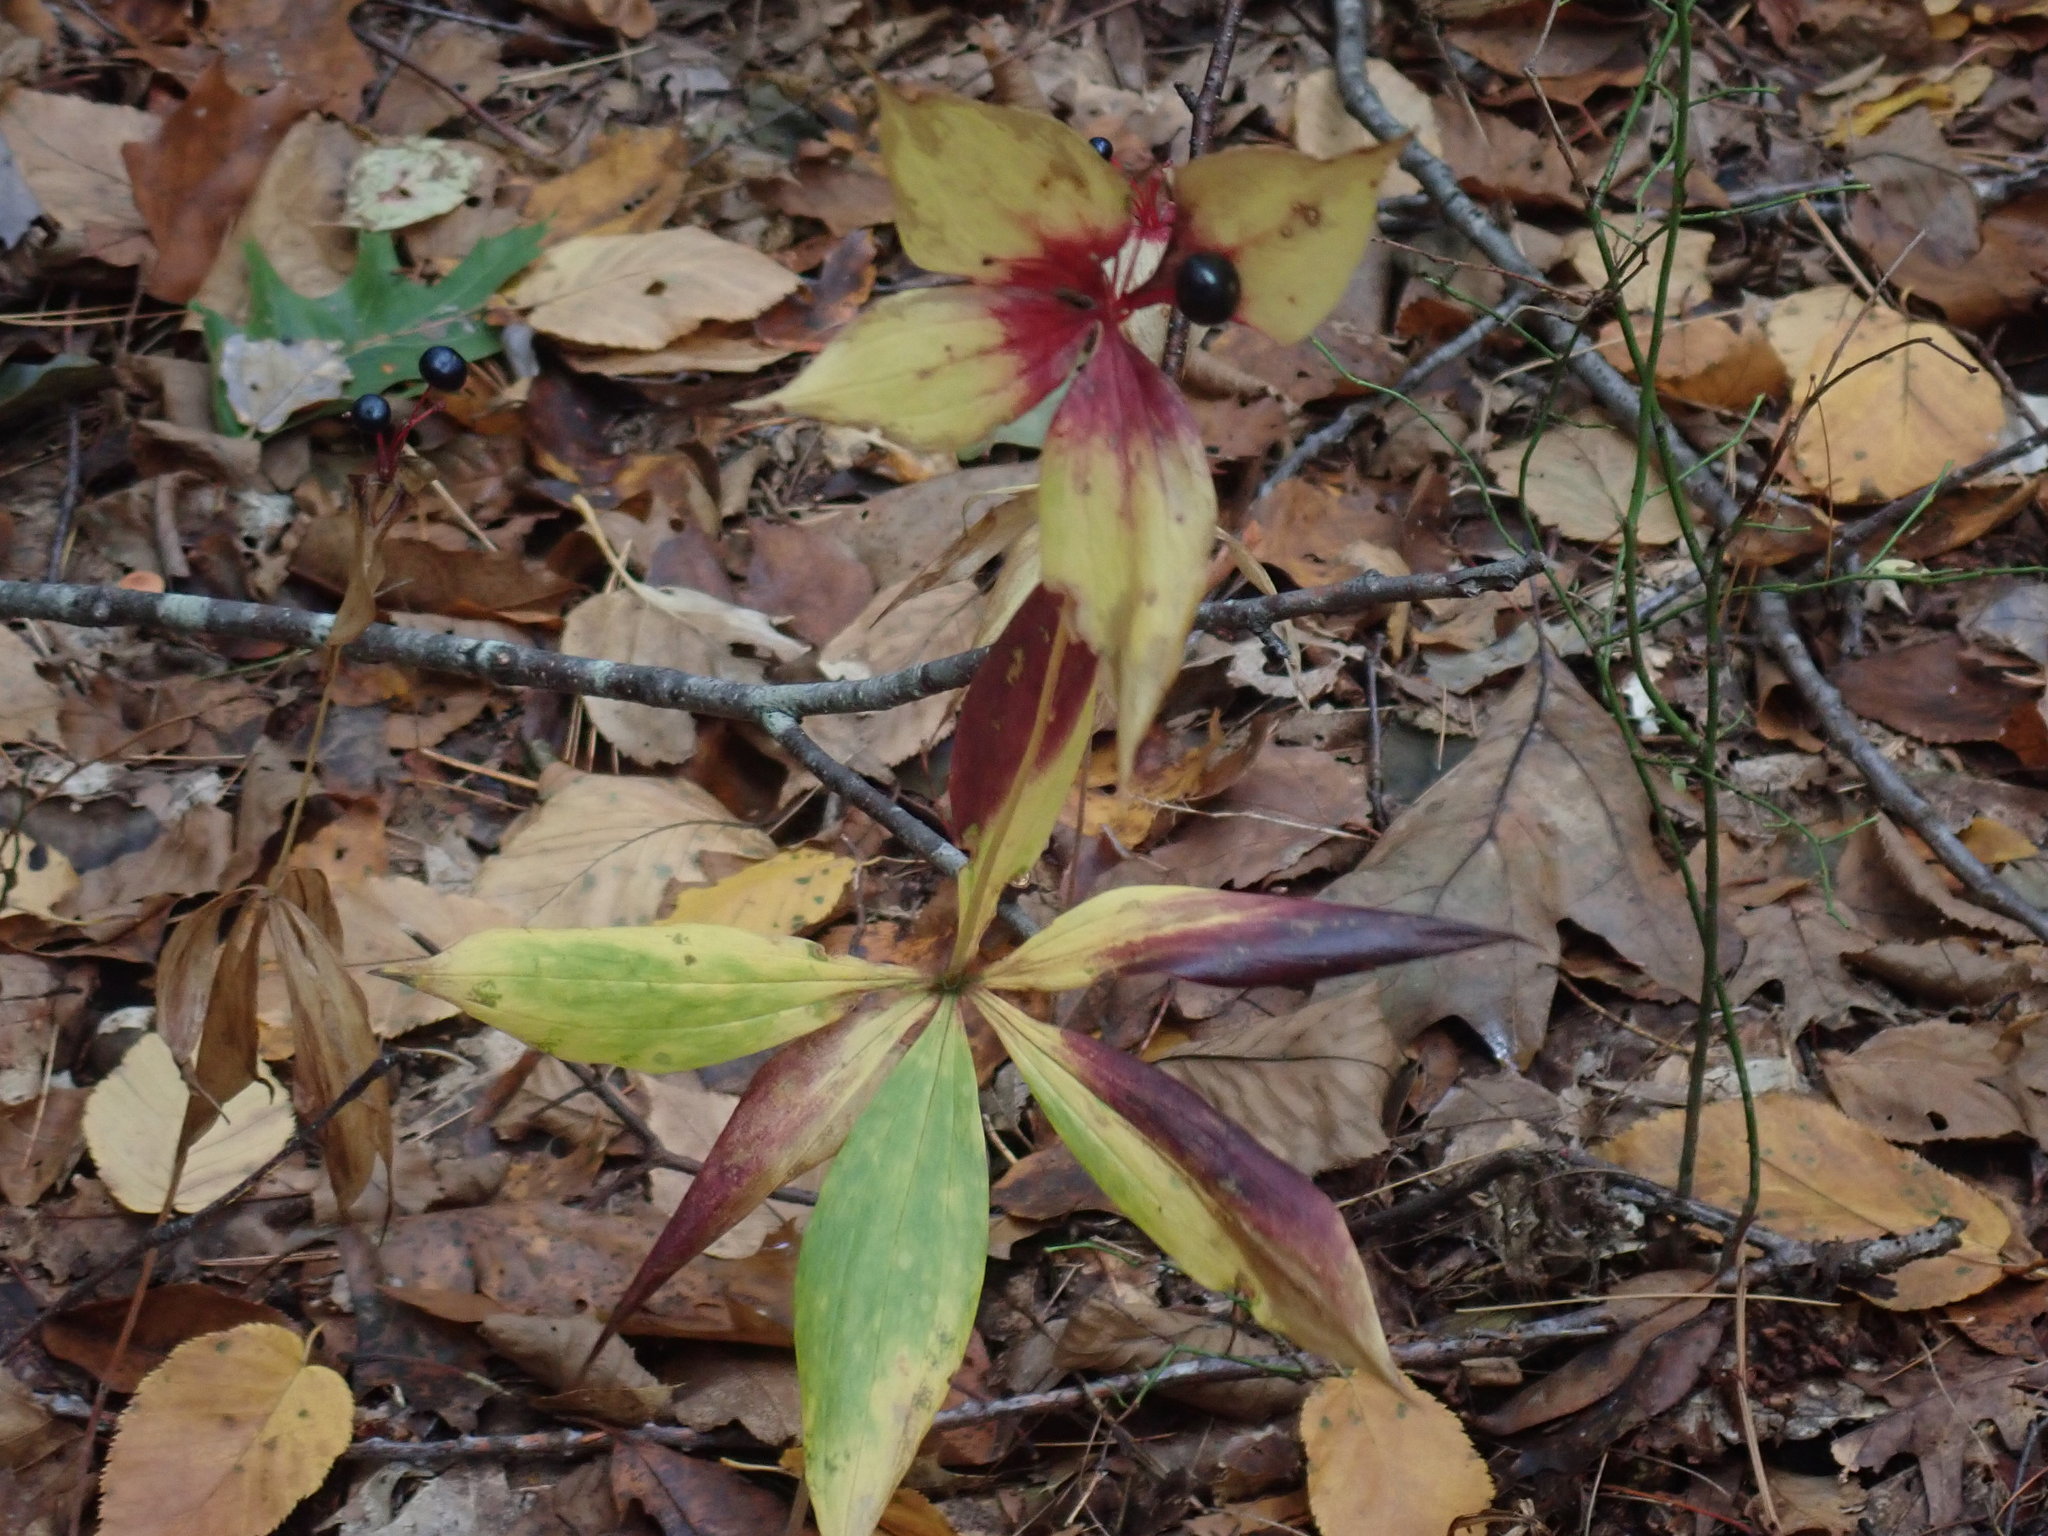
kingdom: Plantae
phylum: Tracheophyta
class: Liliopsida
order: Liliales
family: Liliaceae
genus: Medeola
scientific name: Medeola virginiana
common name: Indian cucumber-root
